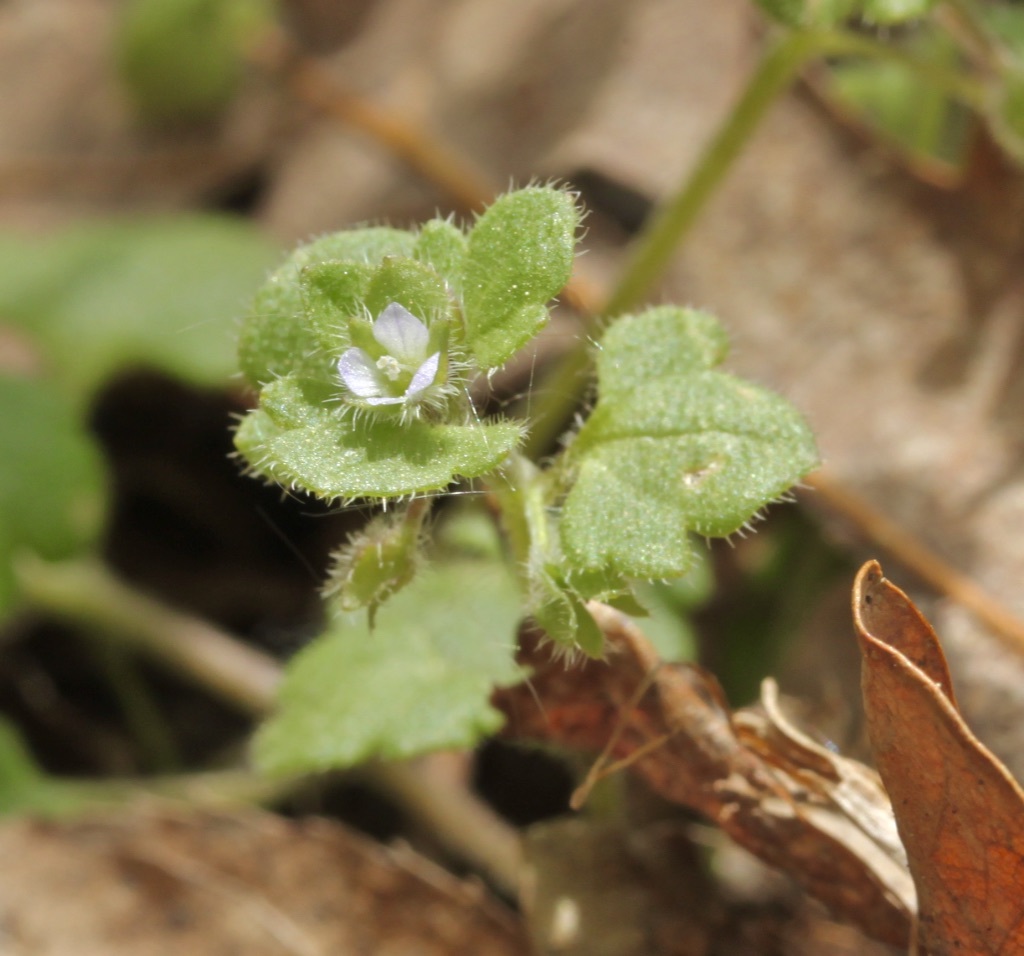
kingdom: Plantae
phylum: Tracheophyta
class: Magnoliopsida
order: Lamiales
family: Plantaginaceae
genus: Veronica
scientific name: Veronica hederifolia
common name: Ivy-leaved speedwell
